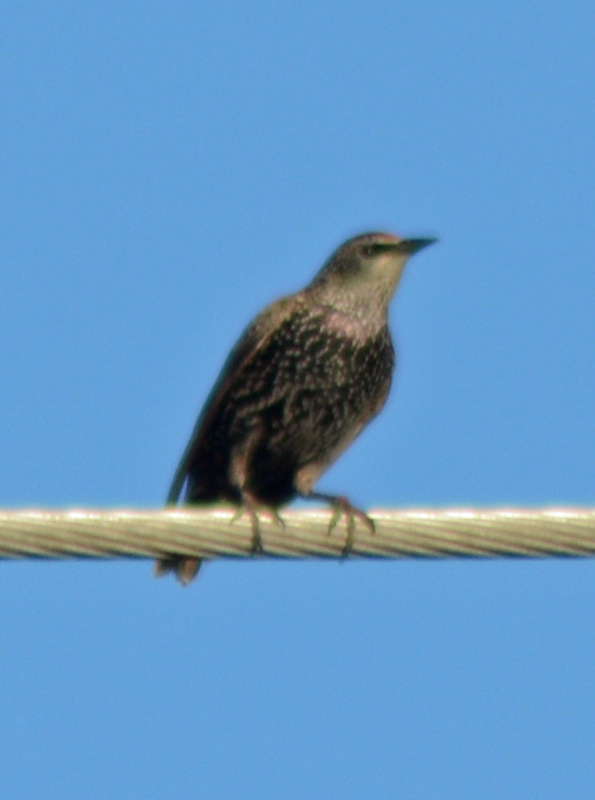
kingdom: Animalia
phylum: Chordata
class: Aves
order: Passeriformes
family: Sturnidae
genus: Sturnus
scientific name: Sturnus vulgaris
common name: Common starling
